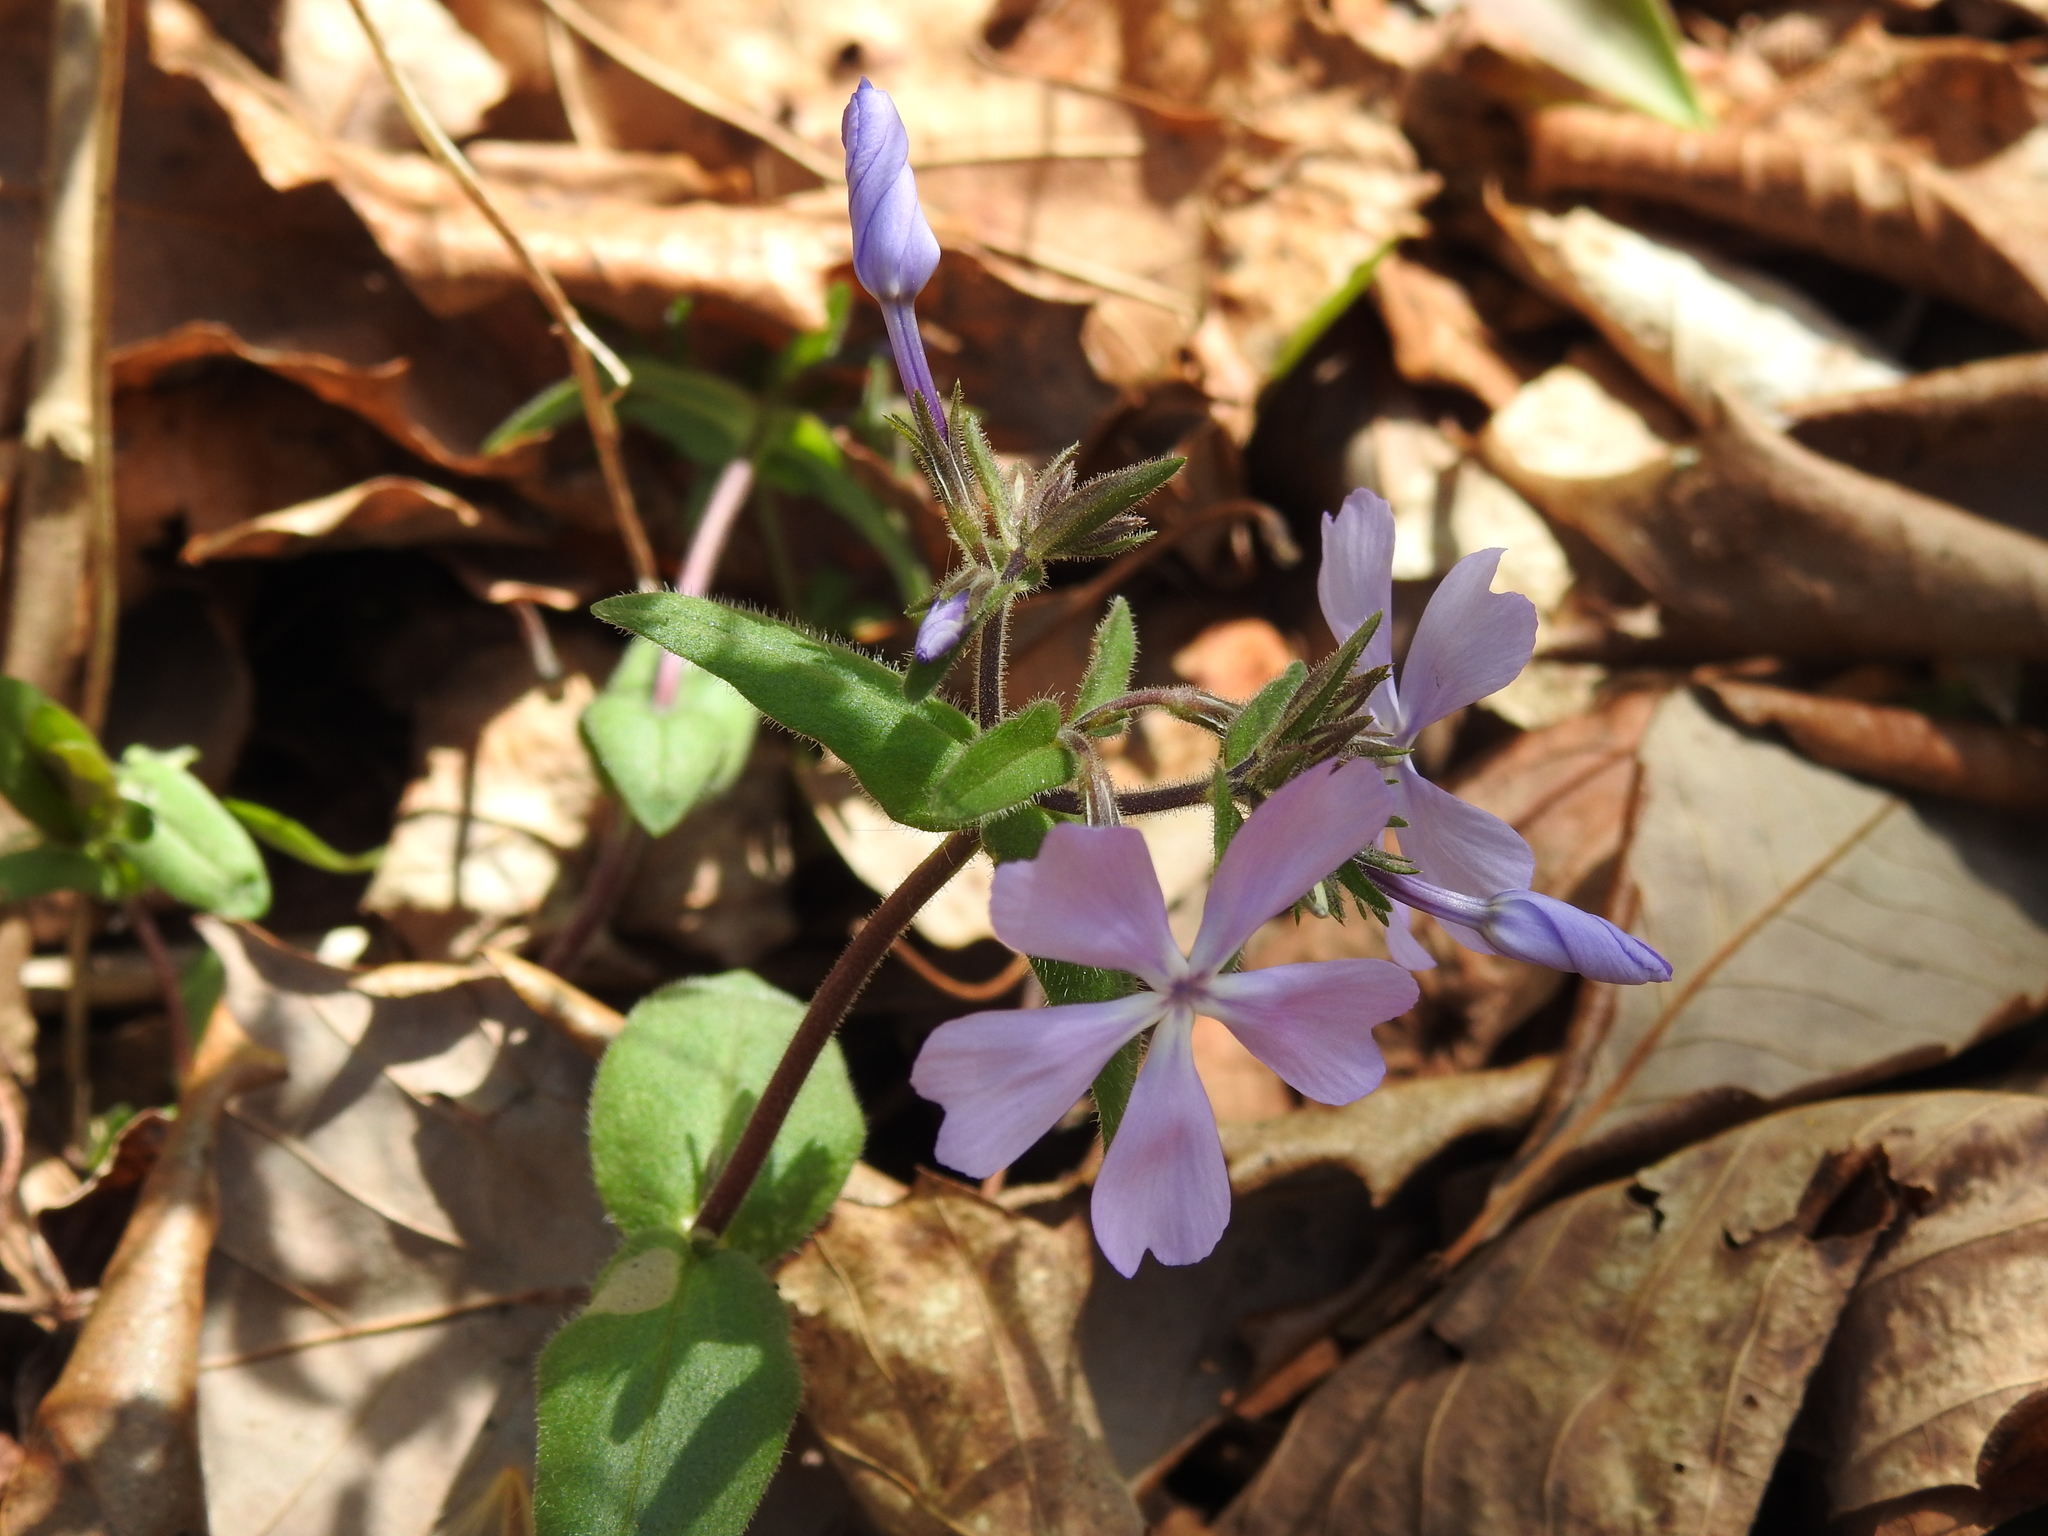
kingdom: Plantae
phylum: Tracheophyta
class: Magnoliopsida
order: Ericales
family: Polemoniaceae
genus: Phlox
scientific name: Phlox divaricata
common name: Blue phlox
